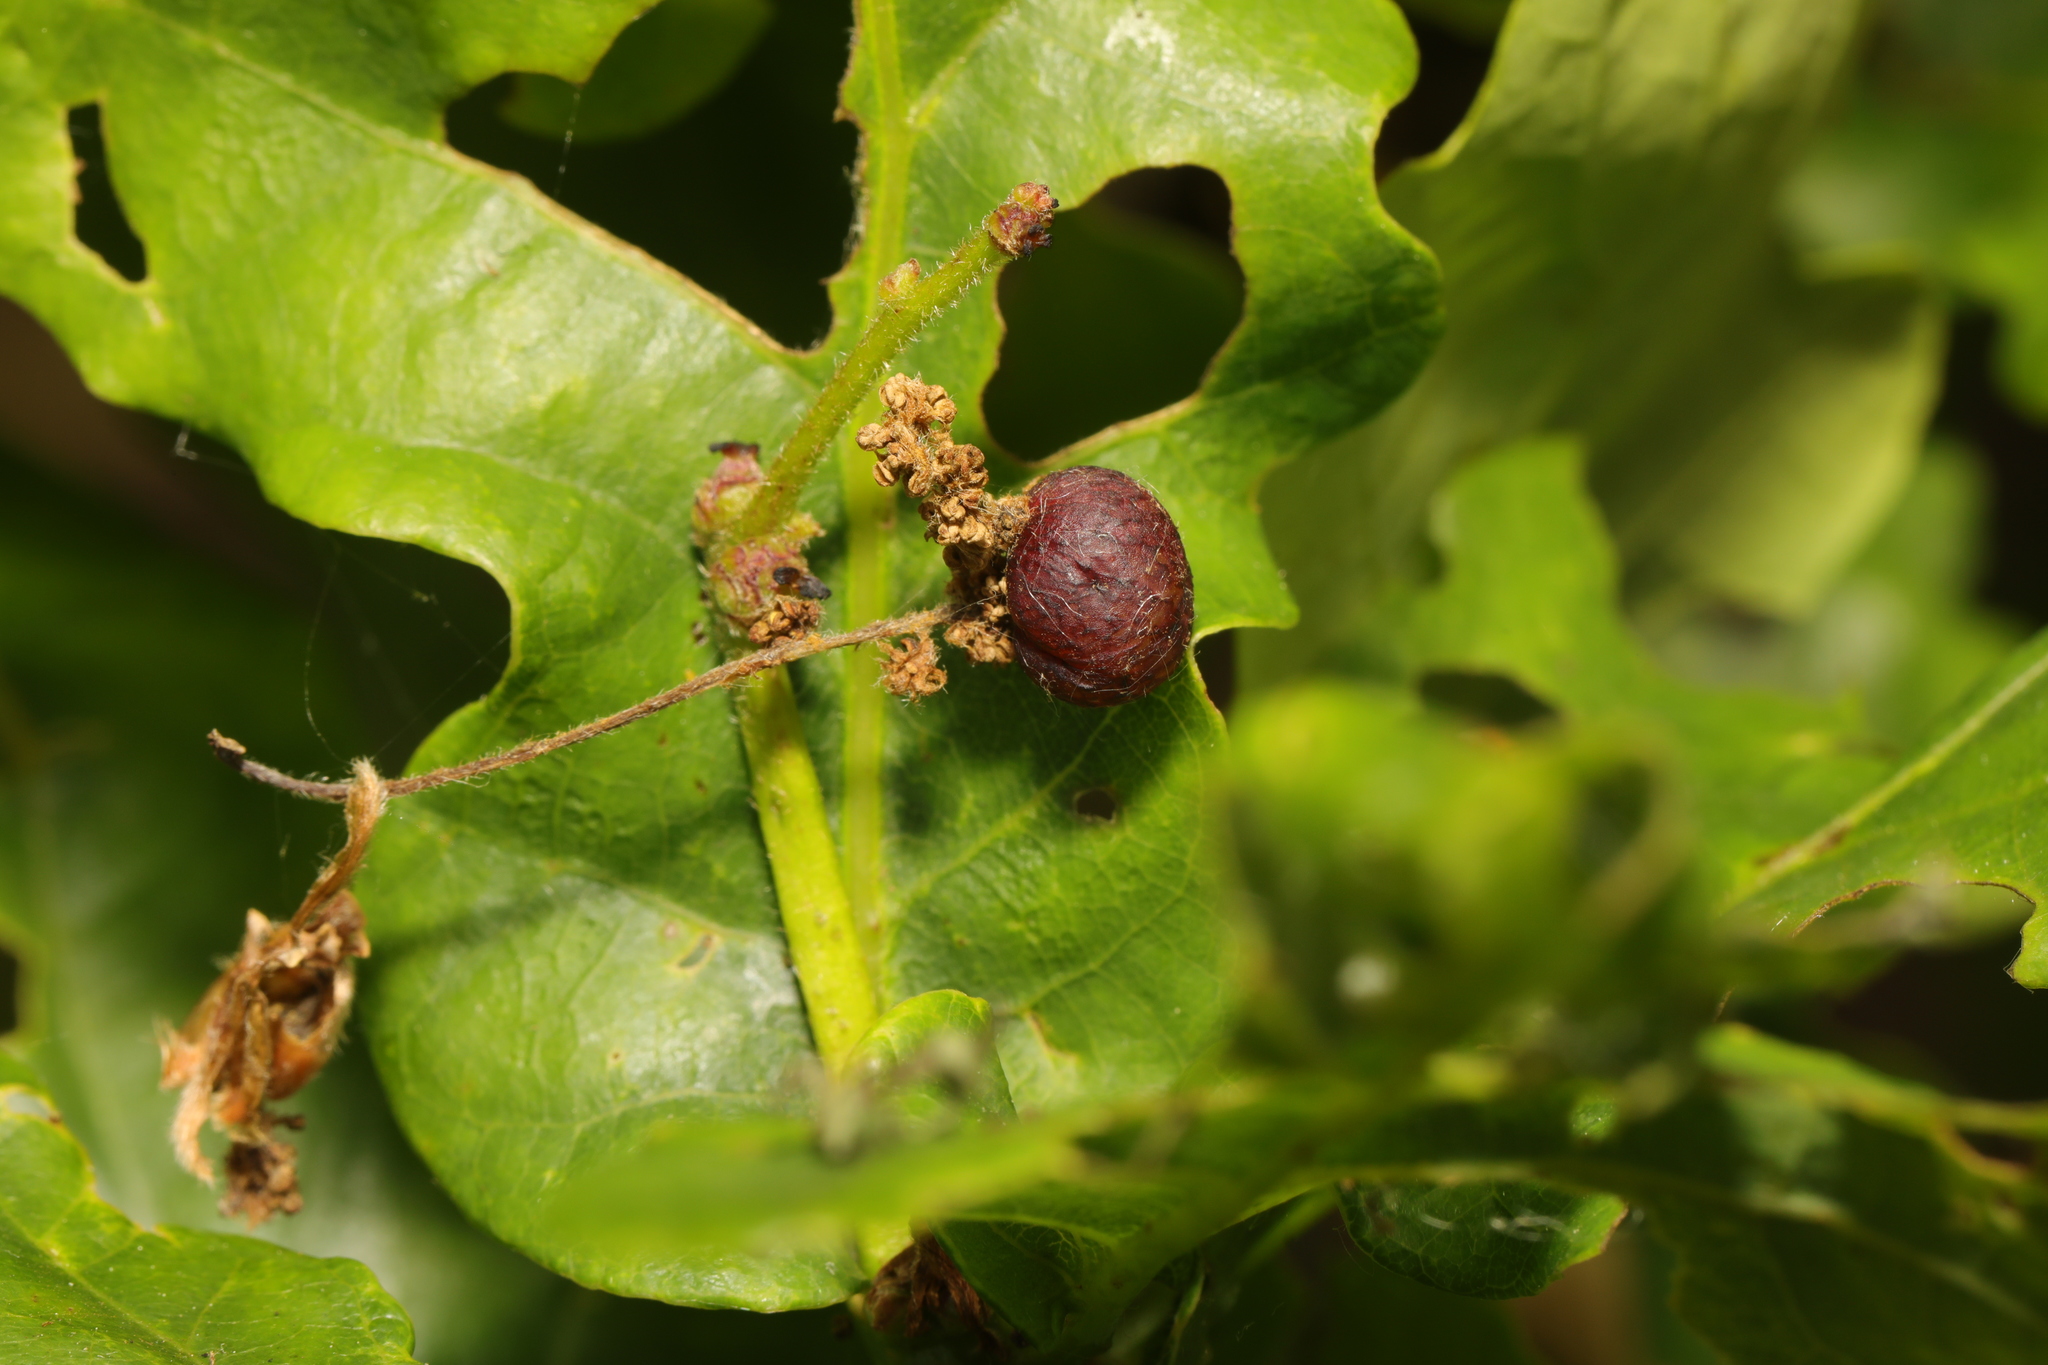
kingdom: Animalia
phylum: Arthropoda
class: Insecta
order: Hymenoptera
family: Cynipidae
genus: Neuroterus
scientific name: Neuroterus quercusbaccarum
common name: Common spangle gall
